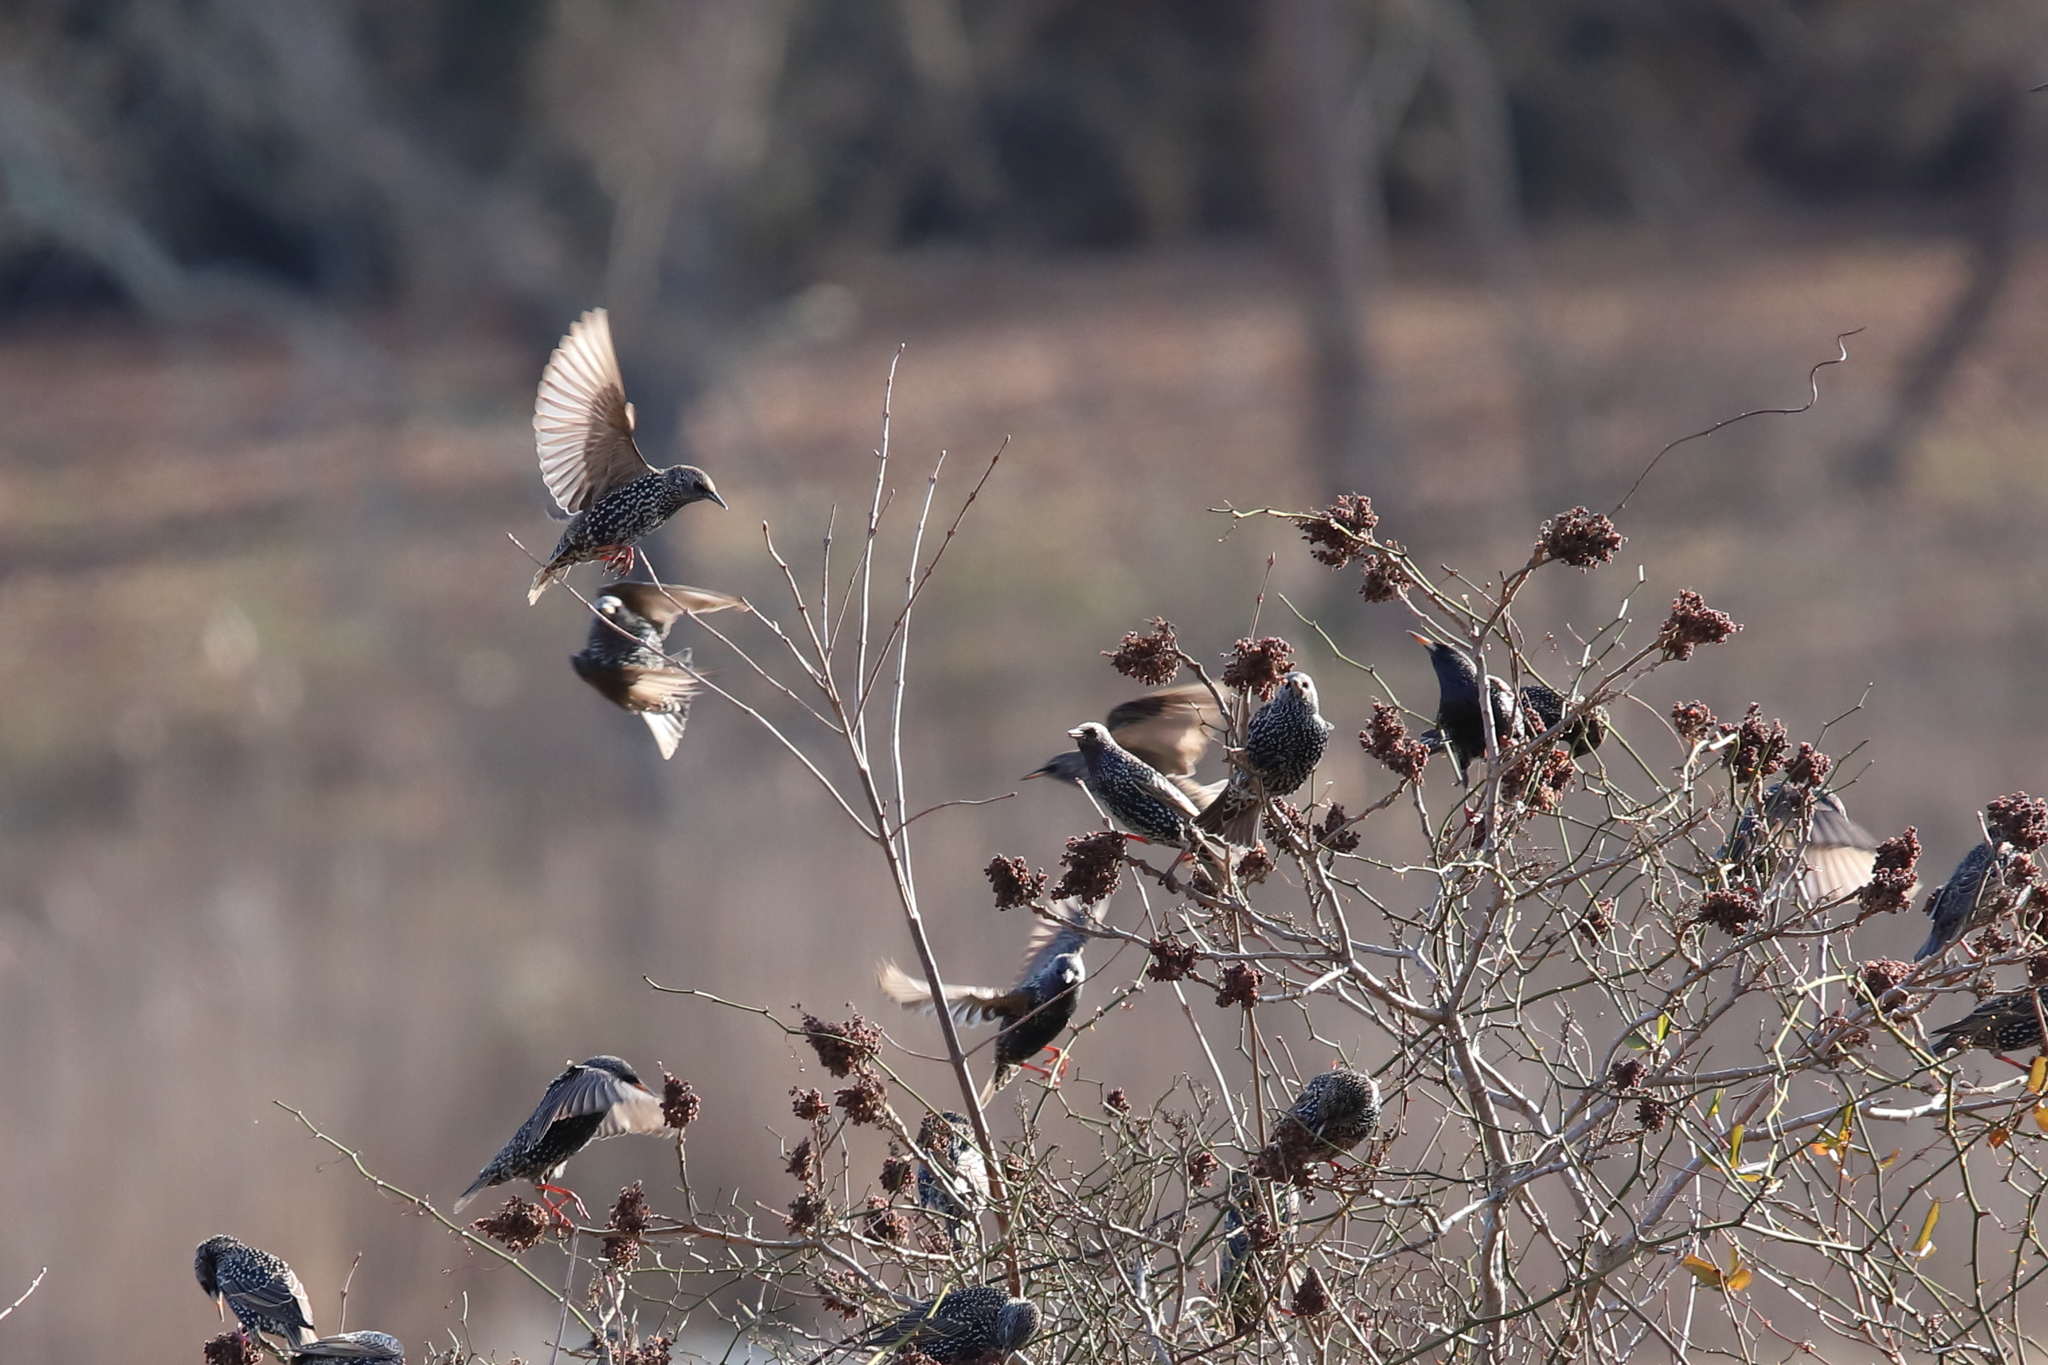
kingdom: Animalia
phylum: Chordata
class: Aves
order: Passeriformes
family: Sturnidae
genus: Sturnus
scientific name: Sturnus vulgaris
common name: Common starling
